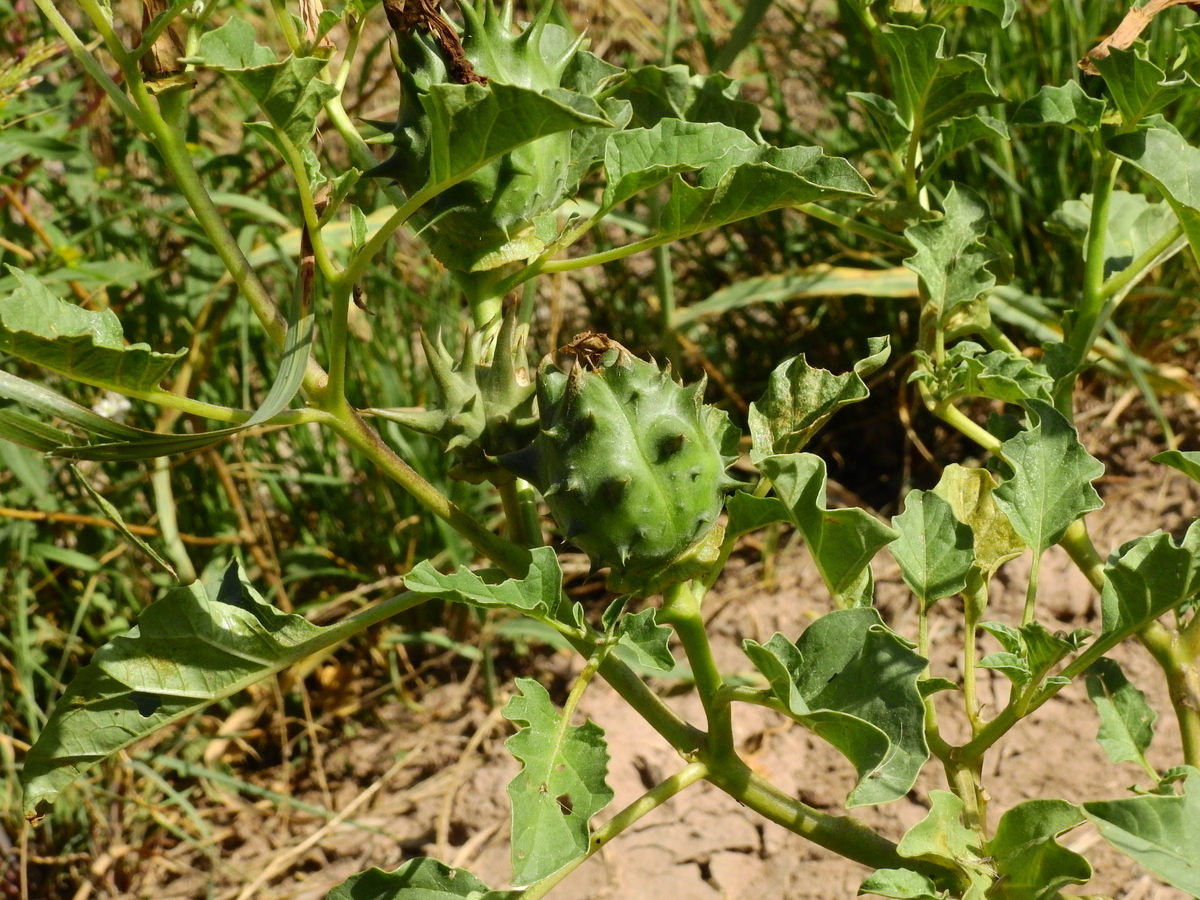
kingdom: Plantae
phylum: Tracheophyta
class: Magnoliopsida
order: Solanales
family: Solanaceae
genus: Datura
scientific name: Datura ferox
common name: Angel's-trumpets
